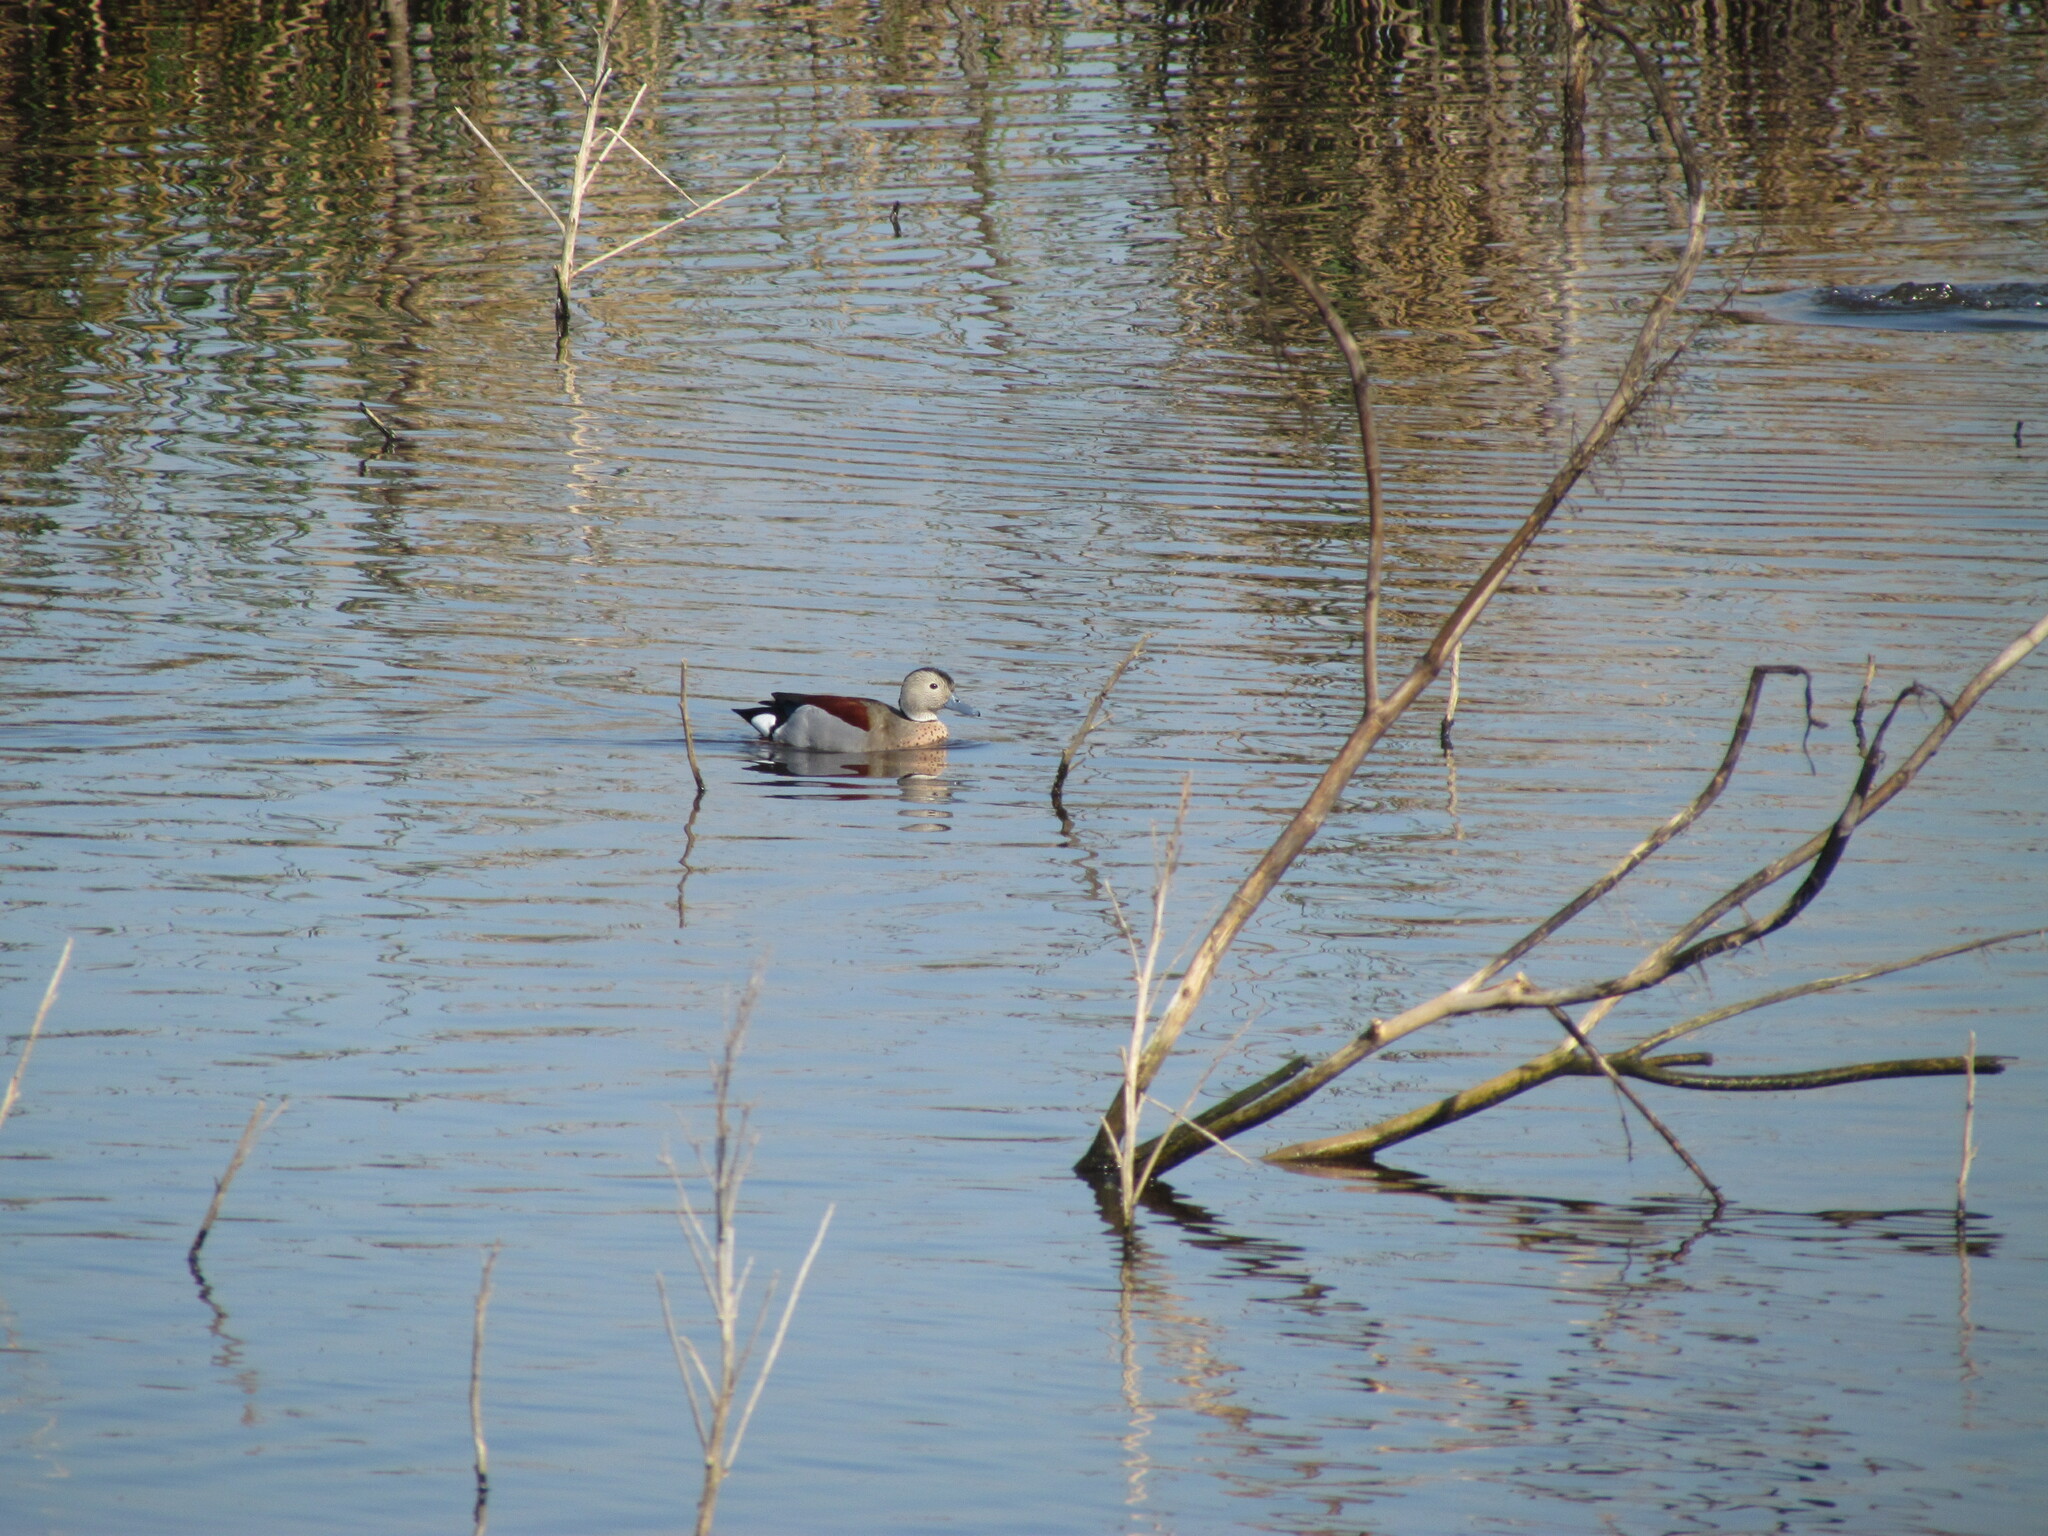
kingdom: Animalia
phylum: Chordata
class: Aves
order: Anseriformes
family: Anatidae
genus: Callonetta
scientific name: Callonetta leucophrys
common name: Ringed teal
